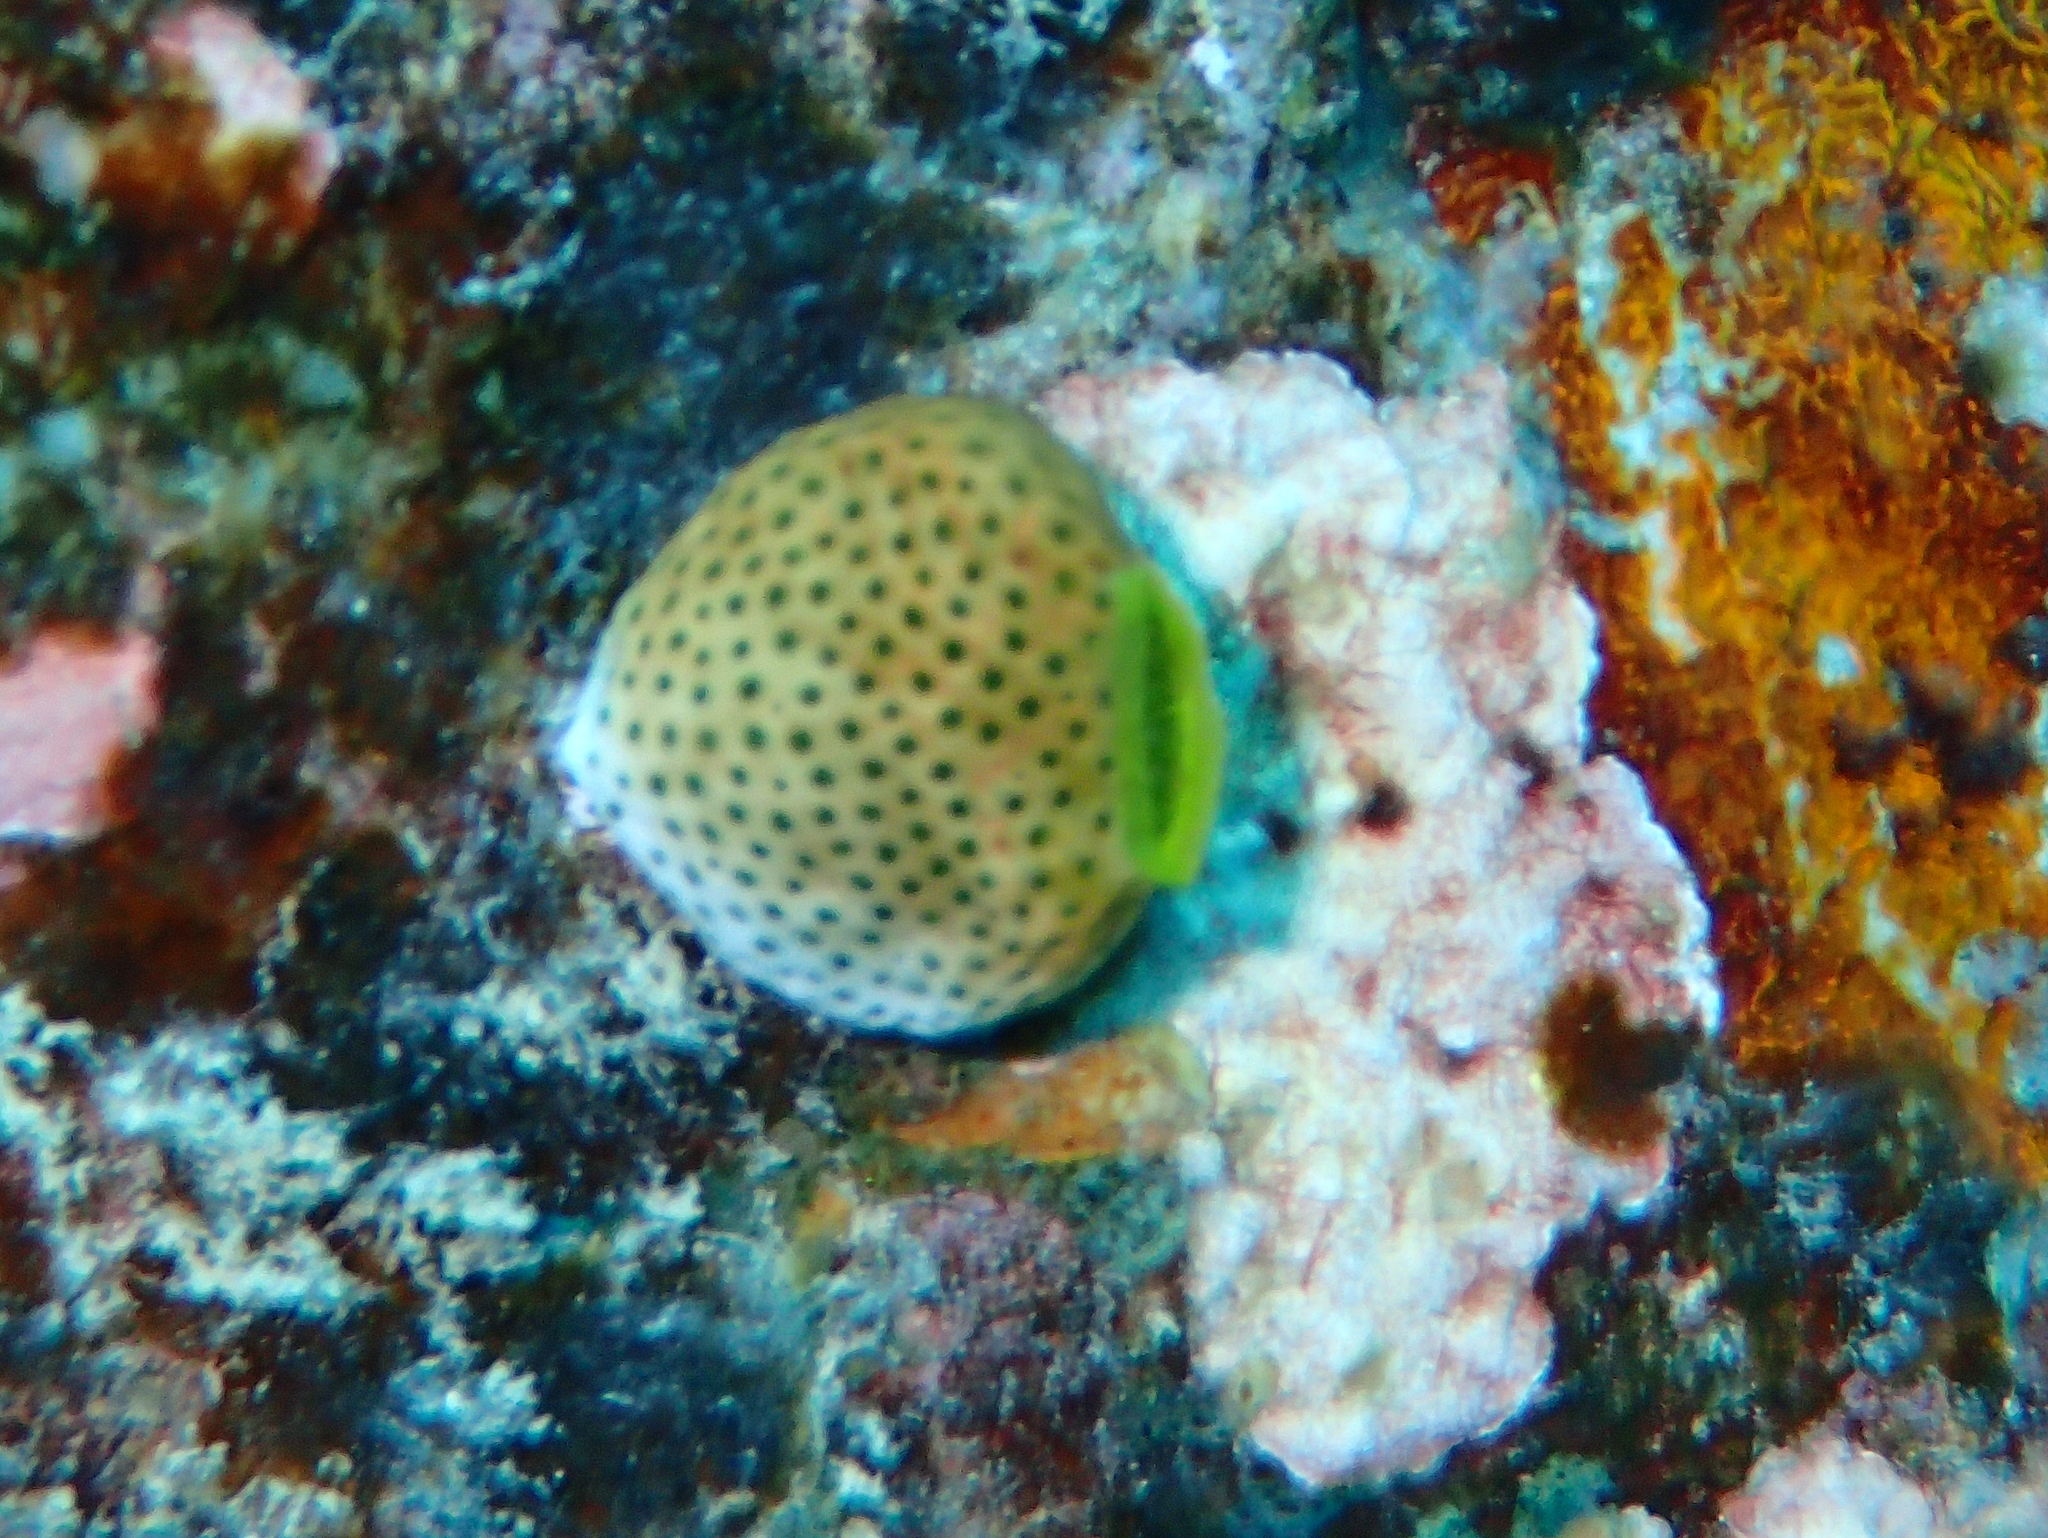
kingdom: Animalia
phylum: Chordata
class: Ascidiacea
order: Aplousobranchia
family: Didemnidae
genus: Didemnum
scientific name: Didemnum molle
